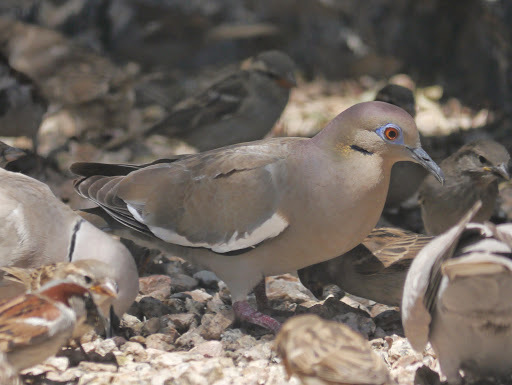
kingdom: Animalia
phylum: Chordata
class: Aves
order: Columbiformes
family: Columbidae
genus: Zenaida
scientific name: Zenaida asiatica
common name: White-winged dove
